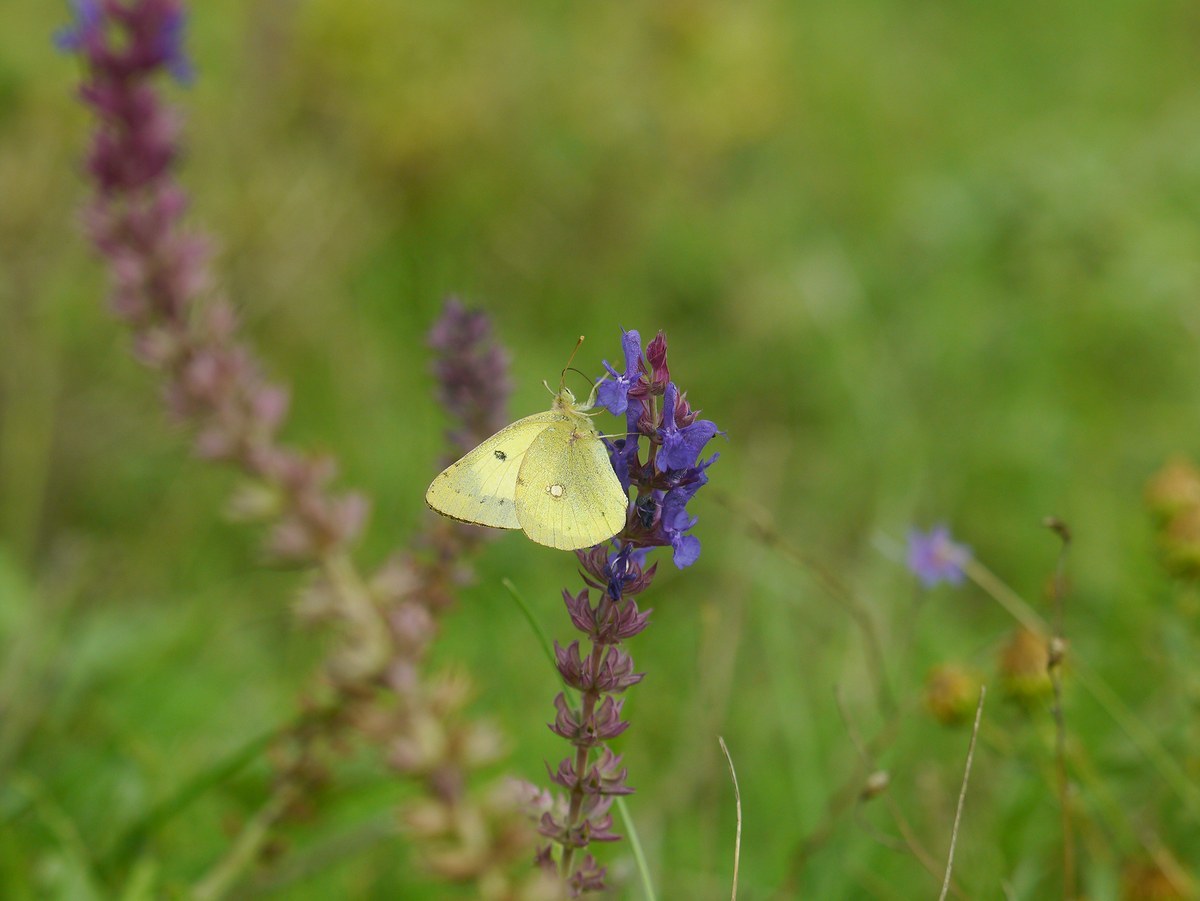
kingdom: Animalia
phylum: Arthropoda
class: Insecta
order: Lepidoptera
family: Pieridae
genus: Colias
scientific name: Colias erate
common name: Eastern pale clouded yellow
